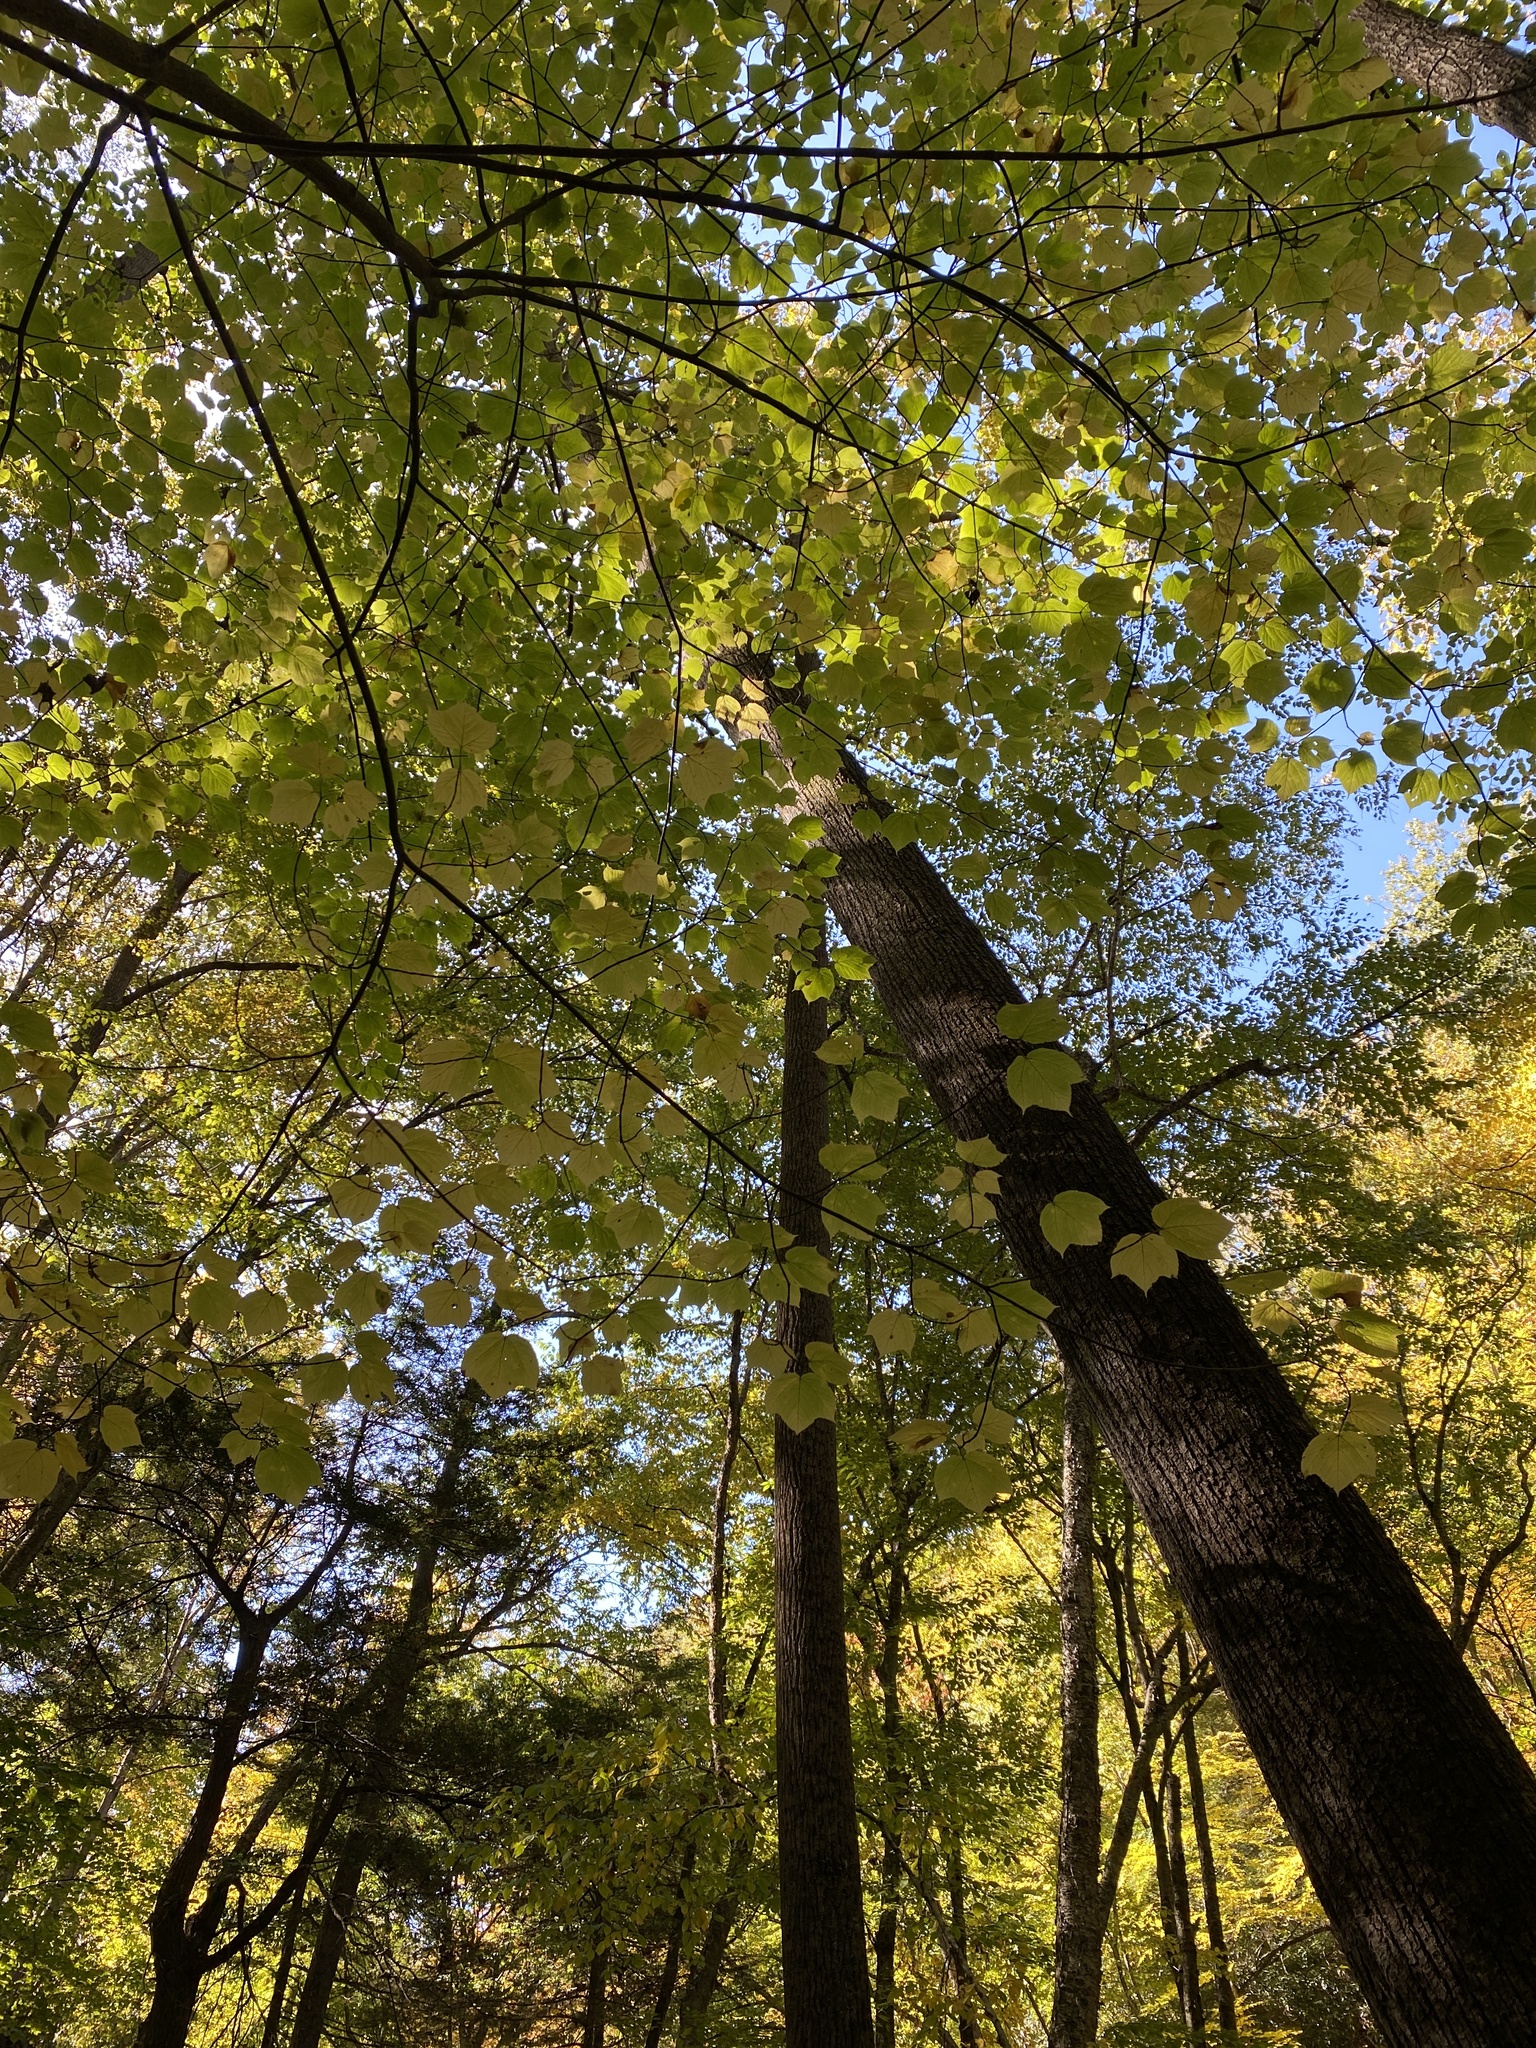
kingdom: Plantae
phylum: Tracheophyta
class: Magnoliopsida
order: Sapindales
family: Sapindaceae
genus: Acer
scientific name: Acer pensylvanicum
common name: Moosewood
